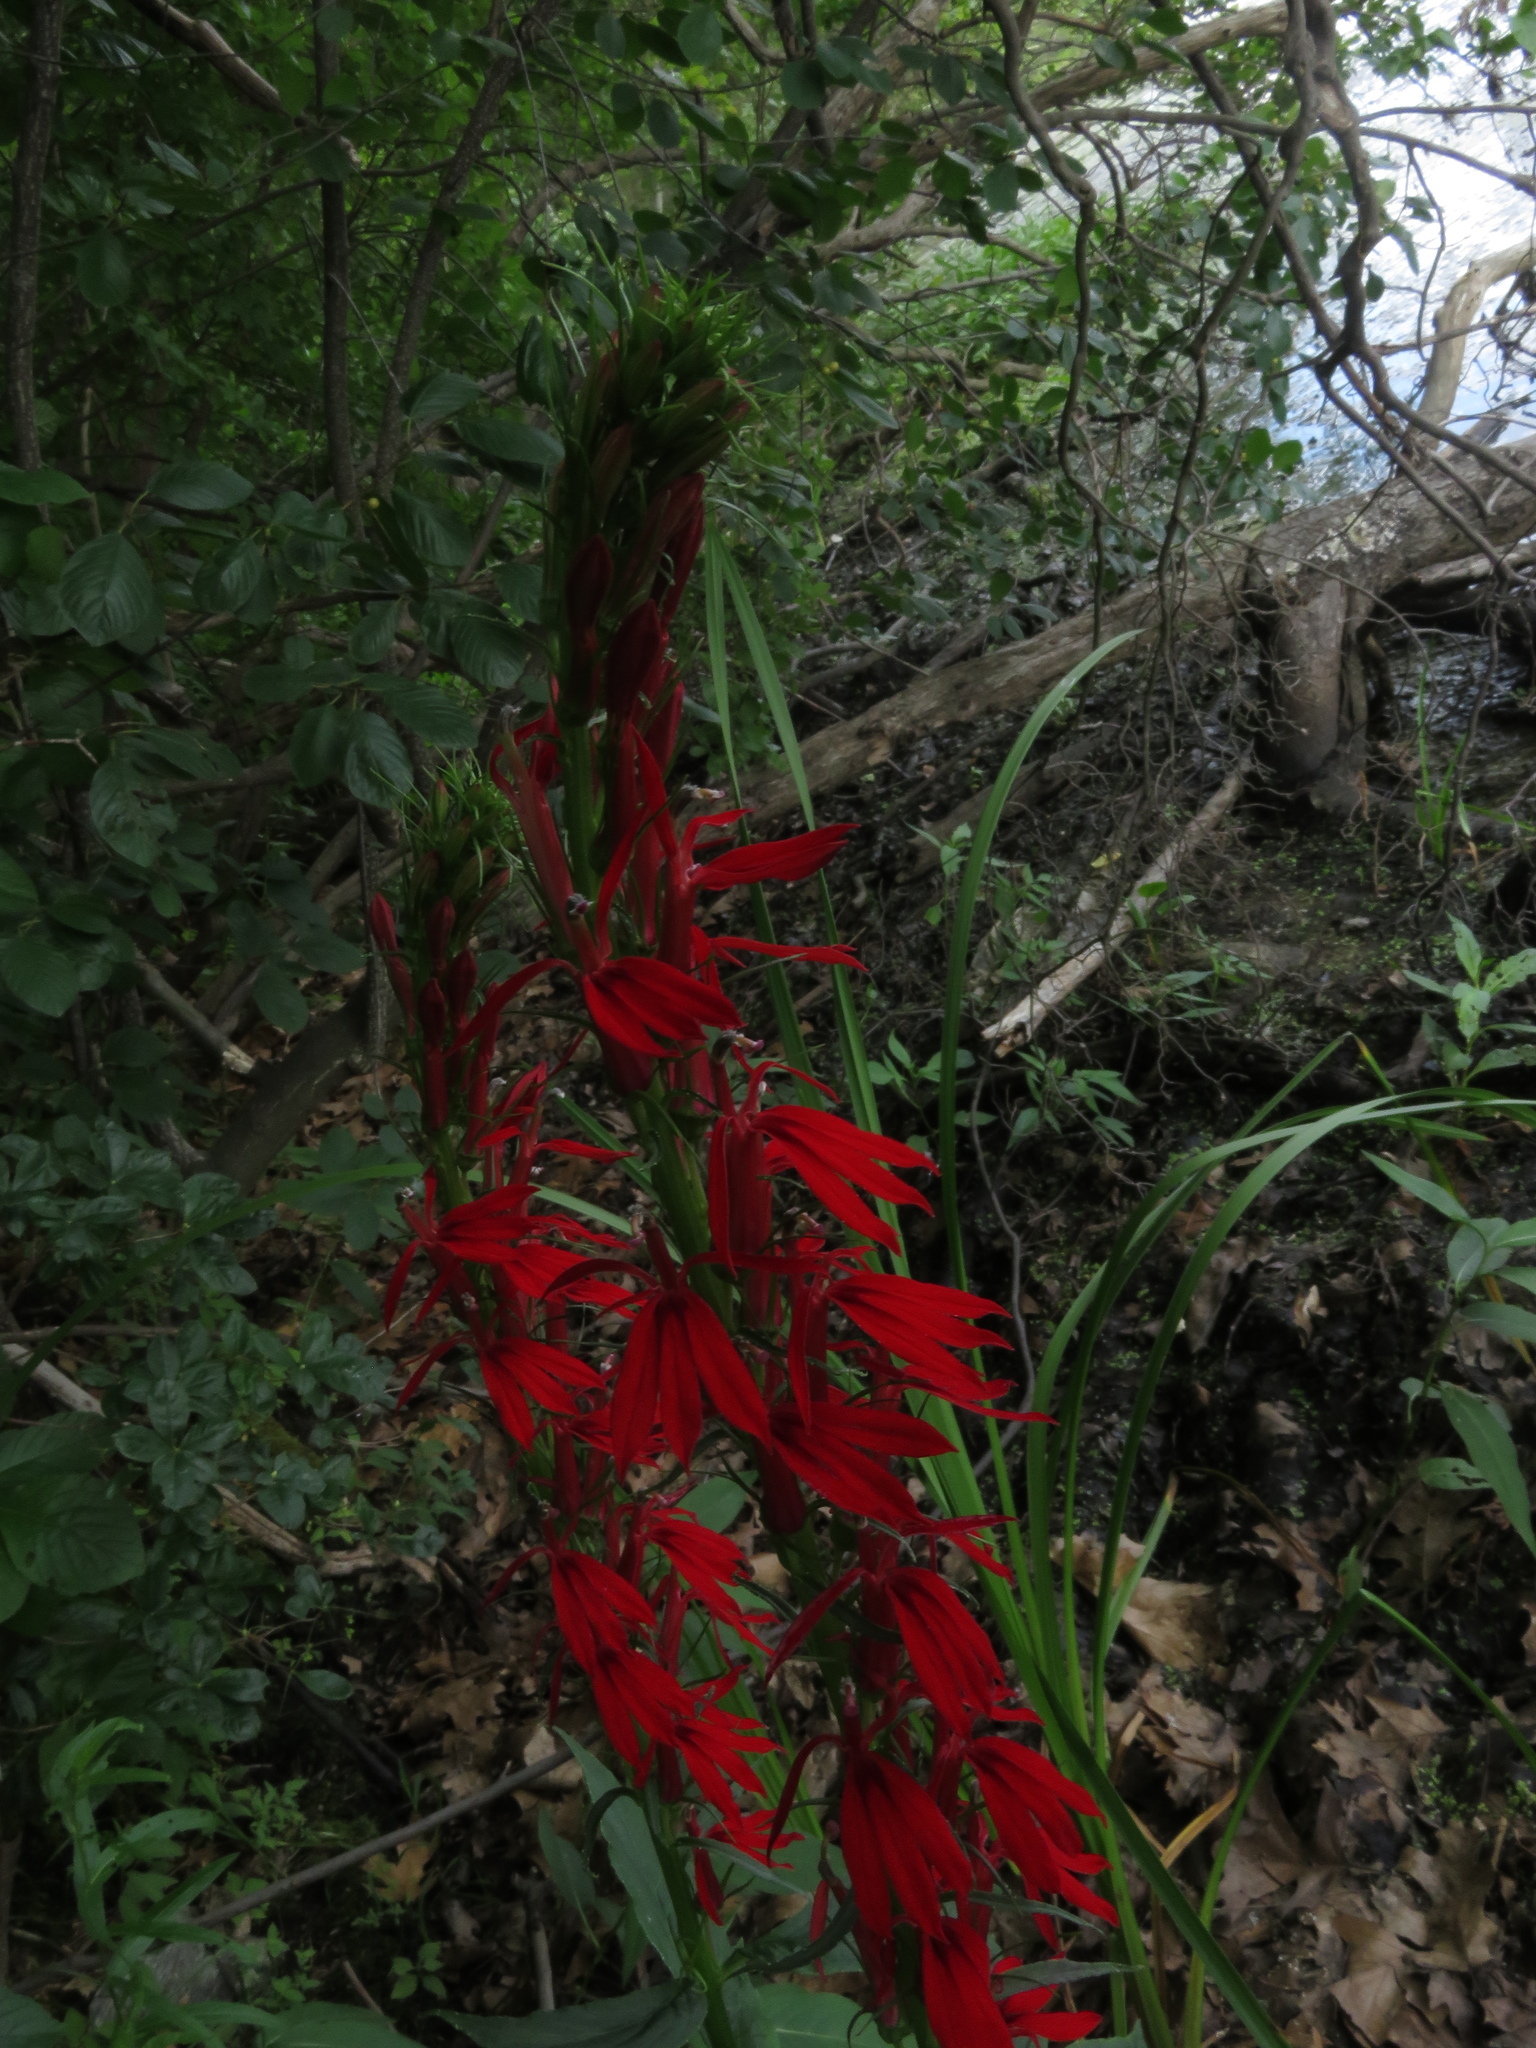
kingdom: Plantae
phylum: Tracheophyta
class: Magnoliopsida
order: Asterales
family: Campanulaceae
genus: Lobelia
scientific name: Lobelia cardinalis
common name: Cardinal flower
